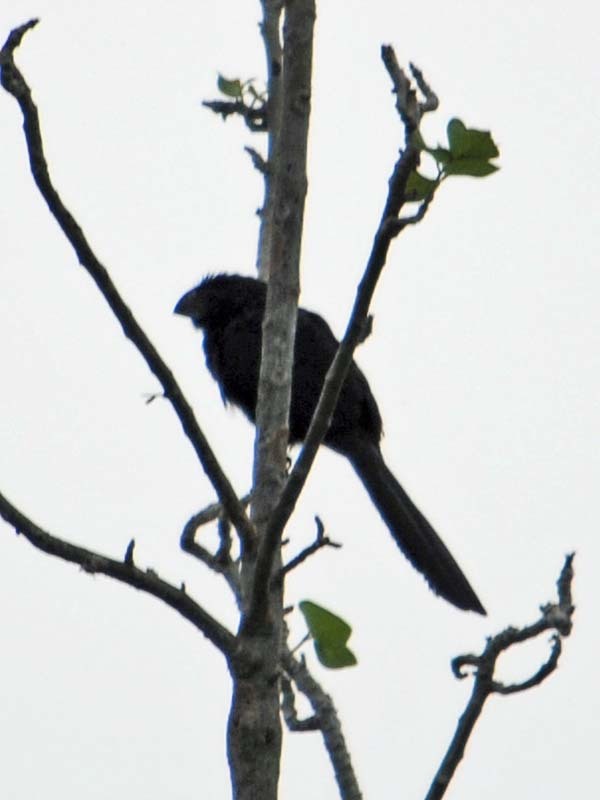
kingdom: Animalia
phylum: Chordata
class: Aves
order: Cuculiformes
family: Cuculidae
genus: Crotophaga
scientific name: Crotophaga sulcirostris
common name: Groove-billed ani
